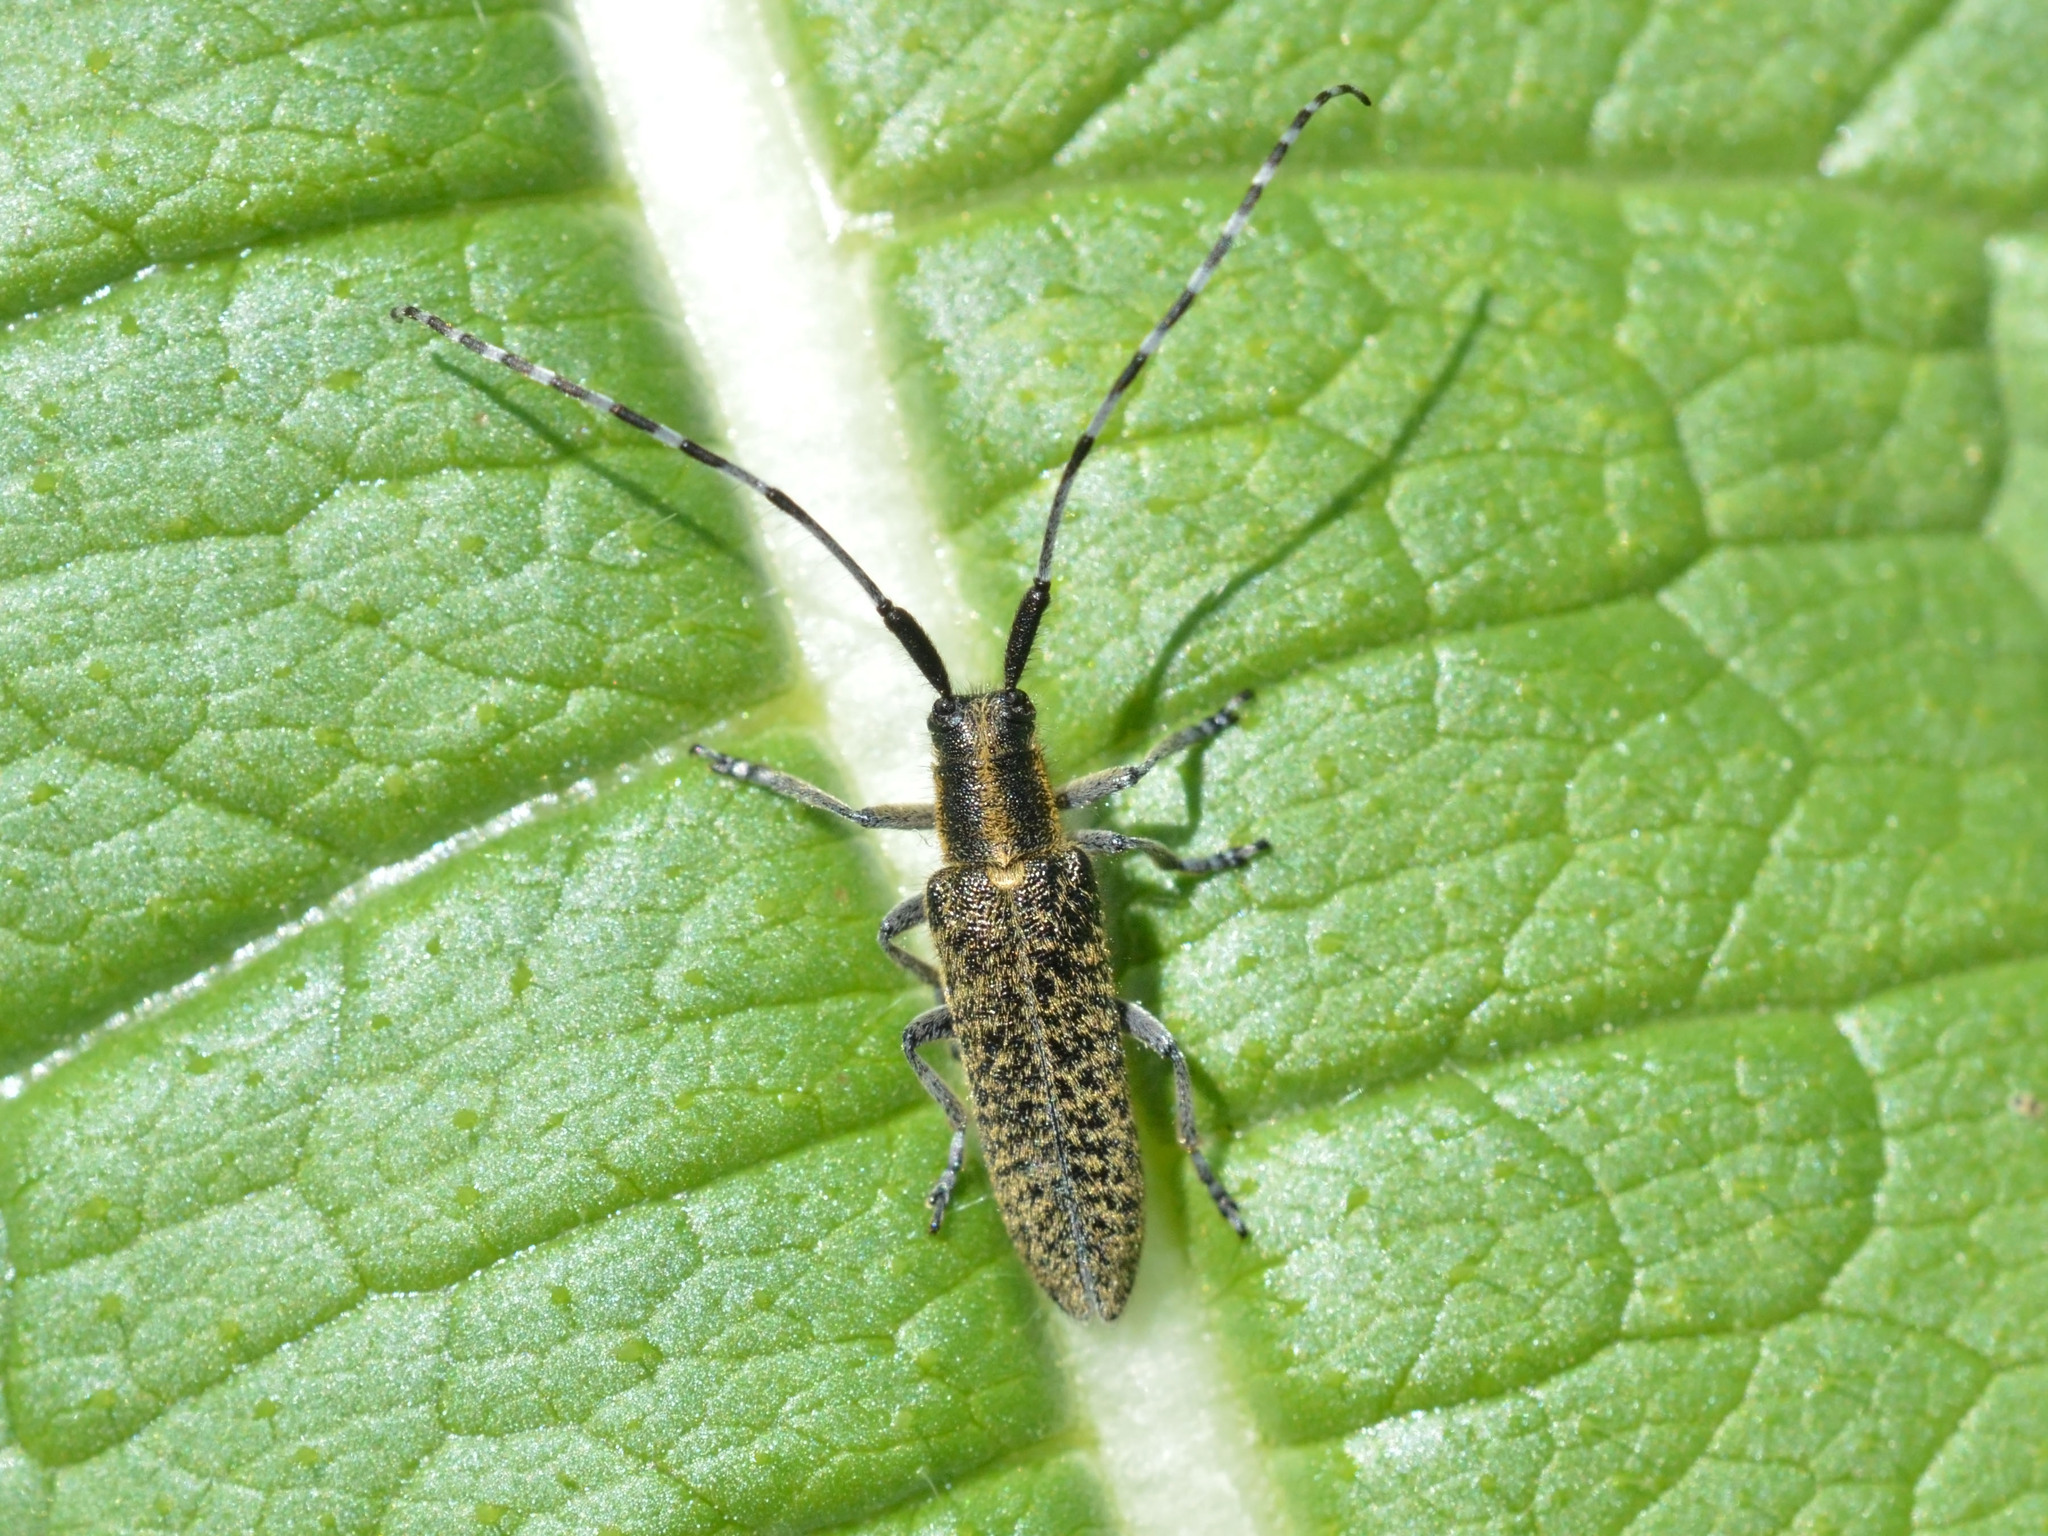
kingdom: Animalia
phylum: Arthropoda
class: Insecta
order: Coleoptera
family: Cerambycidae
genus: Agapanthia
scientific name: Agapanthia villosoviridescens
